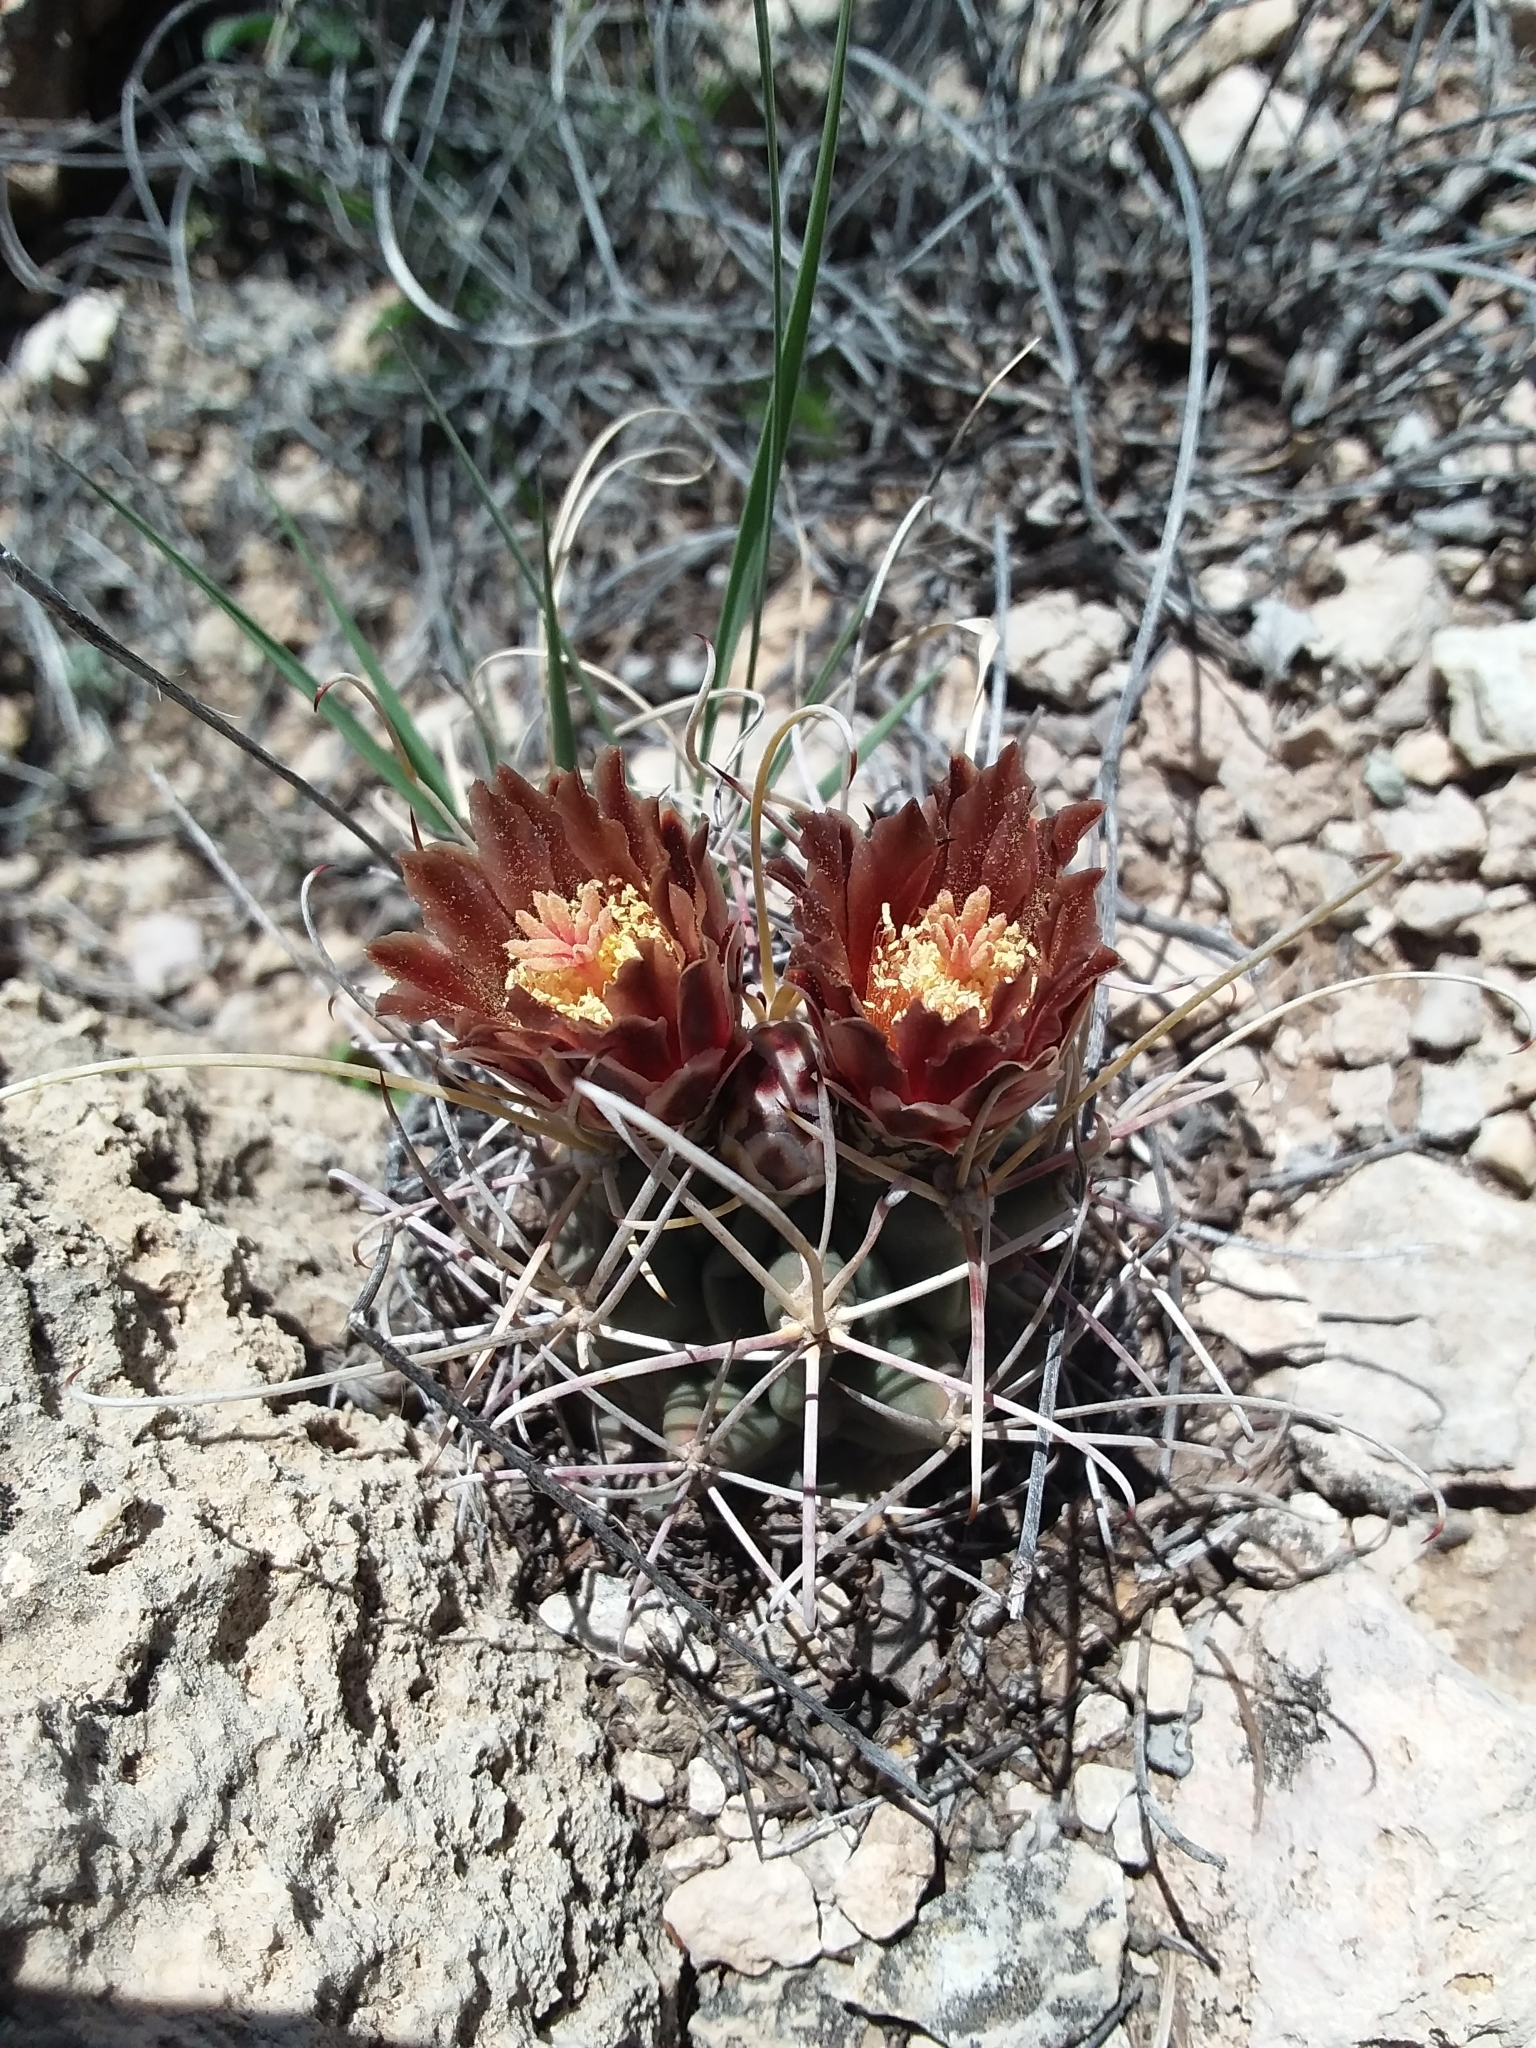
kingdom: Plantae
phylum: Tracheophyta
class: Magnoliopsida
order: Caryophyllales
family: Cactaceae
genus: Ferocactus
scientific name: Ferocactus uncinatus
